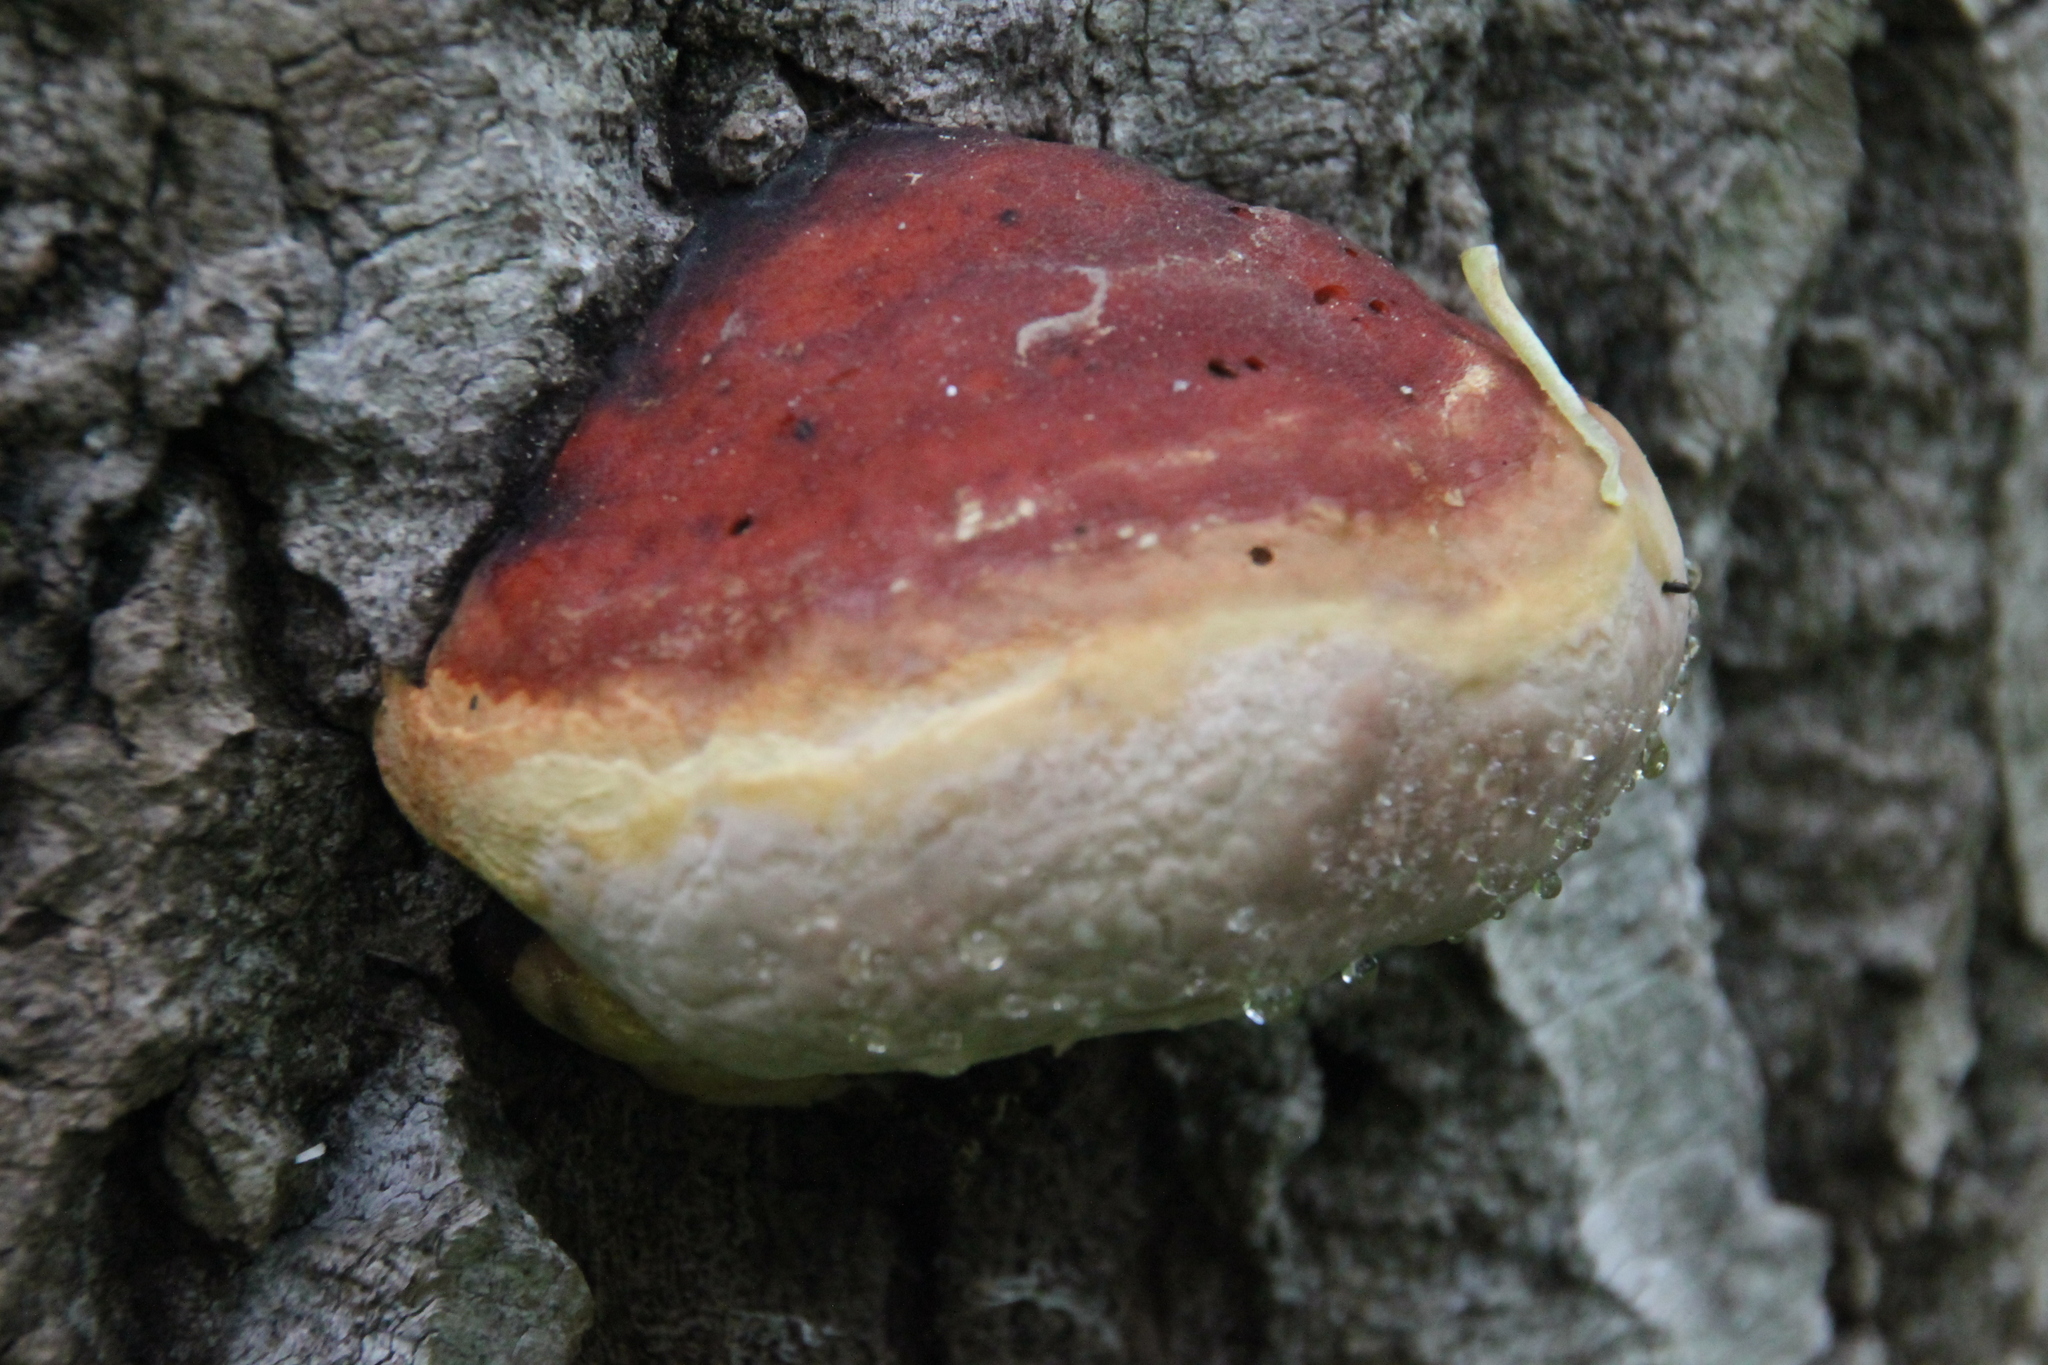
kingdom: Fungi
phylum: Basidiomycota
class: Agaricomycetes
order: Polyporales
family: Fomitopsidaceae
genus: Fomitopsis
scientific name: Fomitopsis pinicola
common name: Red-belted bracket
